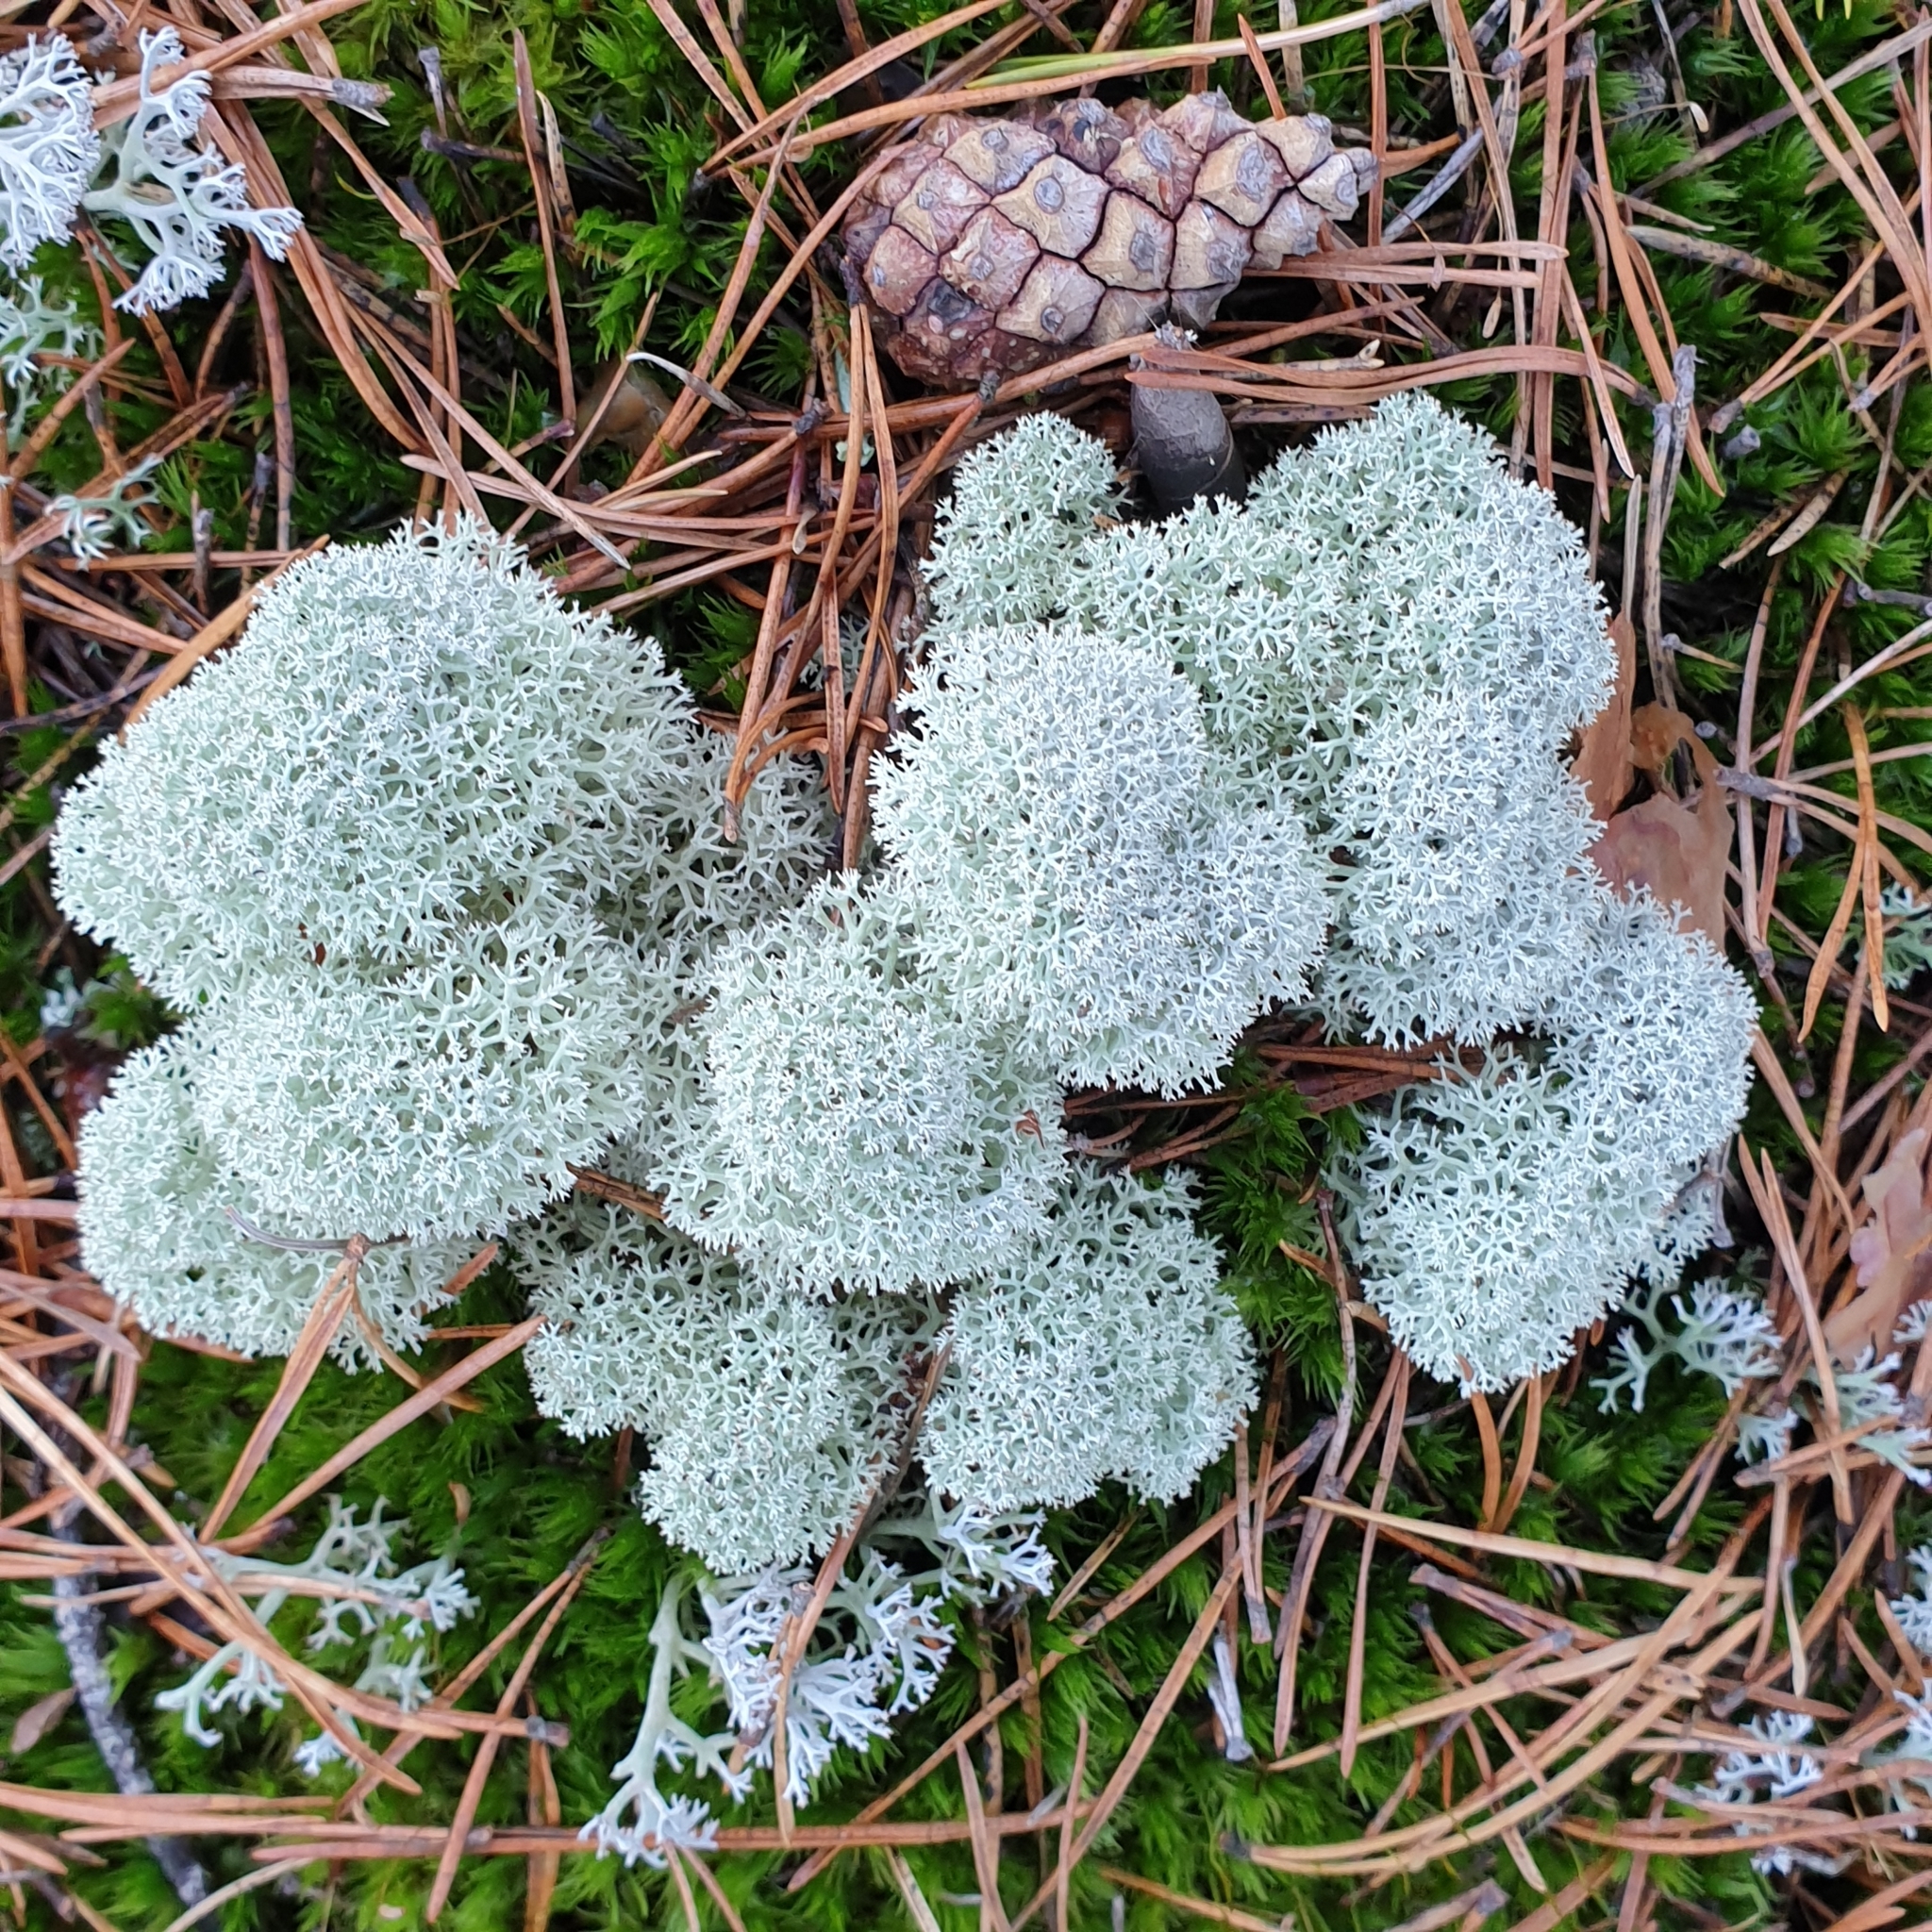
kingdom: Fungi
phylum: Ascomycota
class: Lecanoromycetes
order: Lecanorales
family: Cladoniaceae
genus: Cladonia
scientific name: Cladonia stellaris
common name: Star-tipped reindeer lichen
